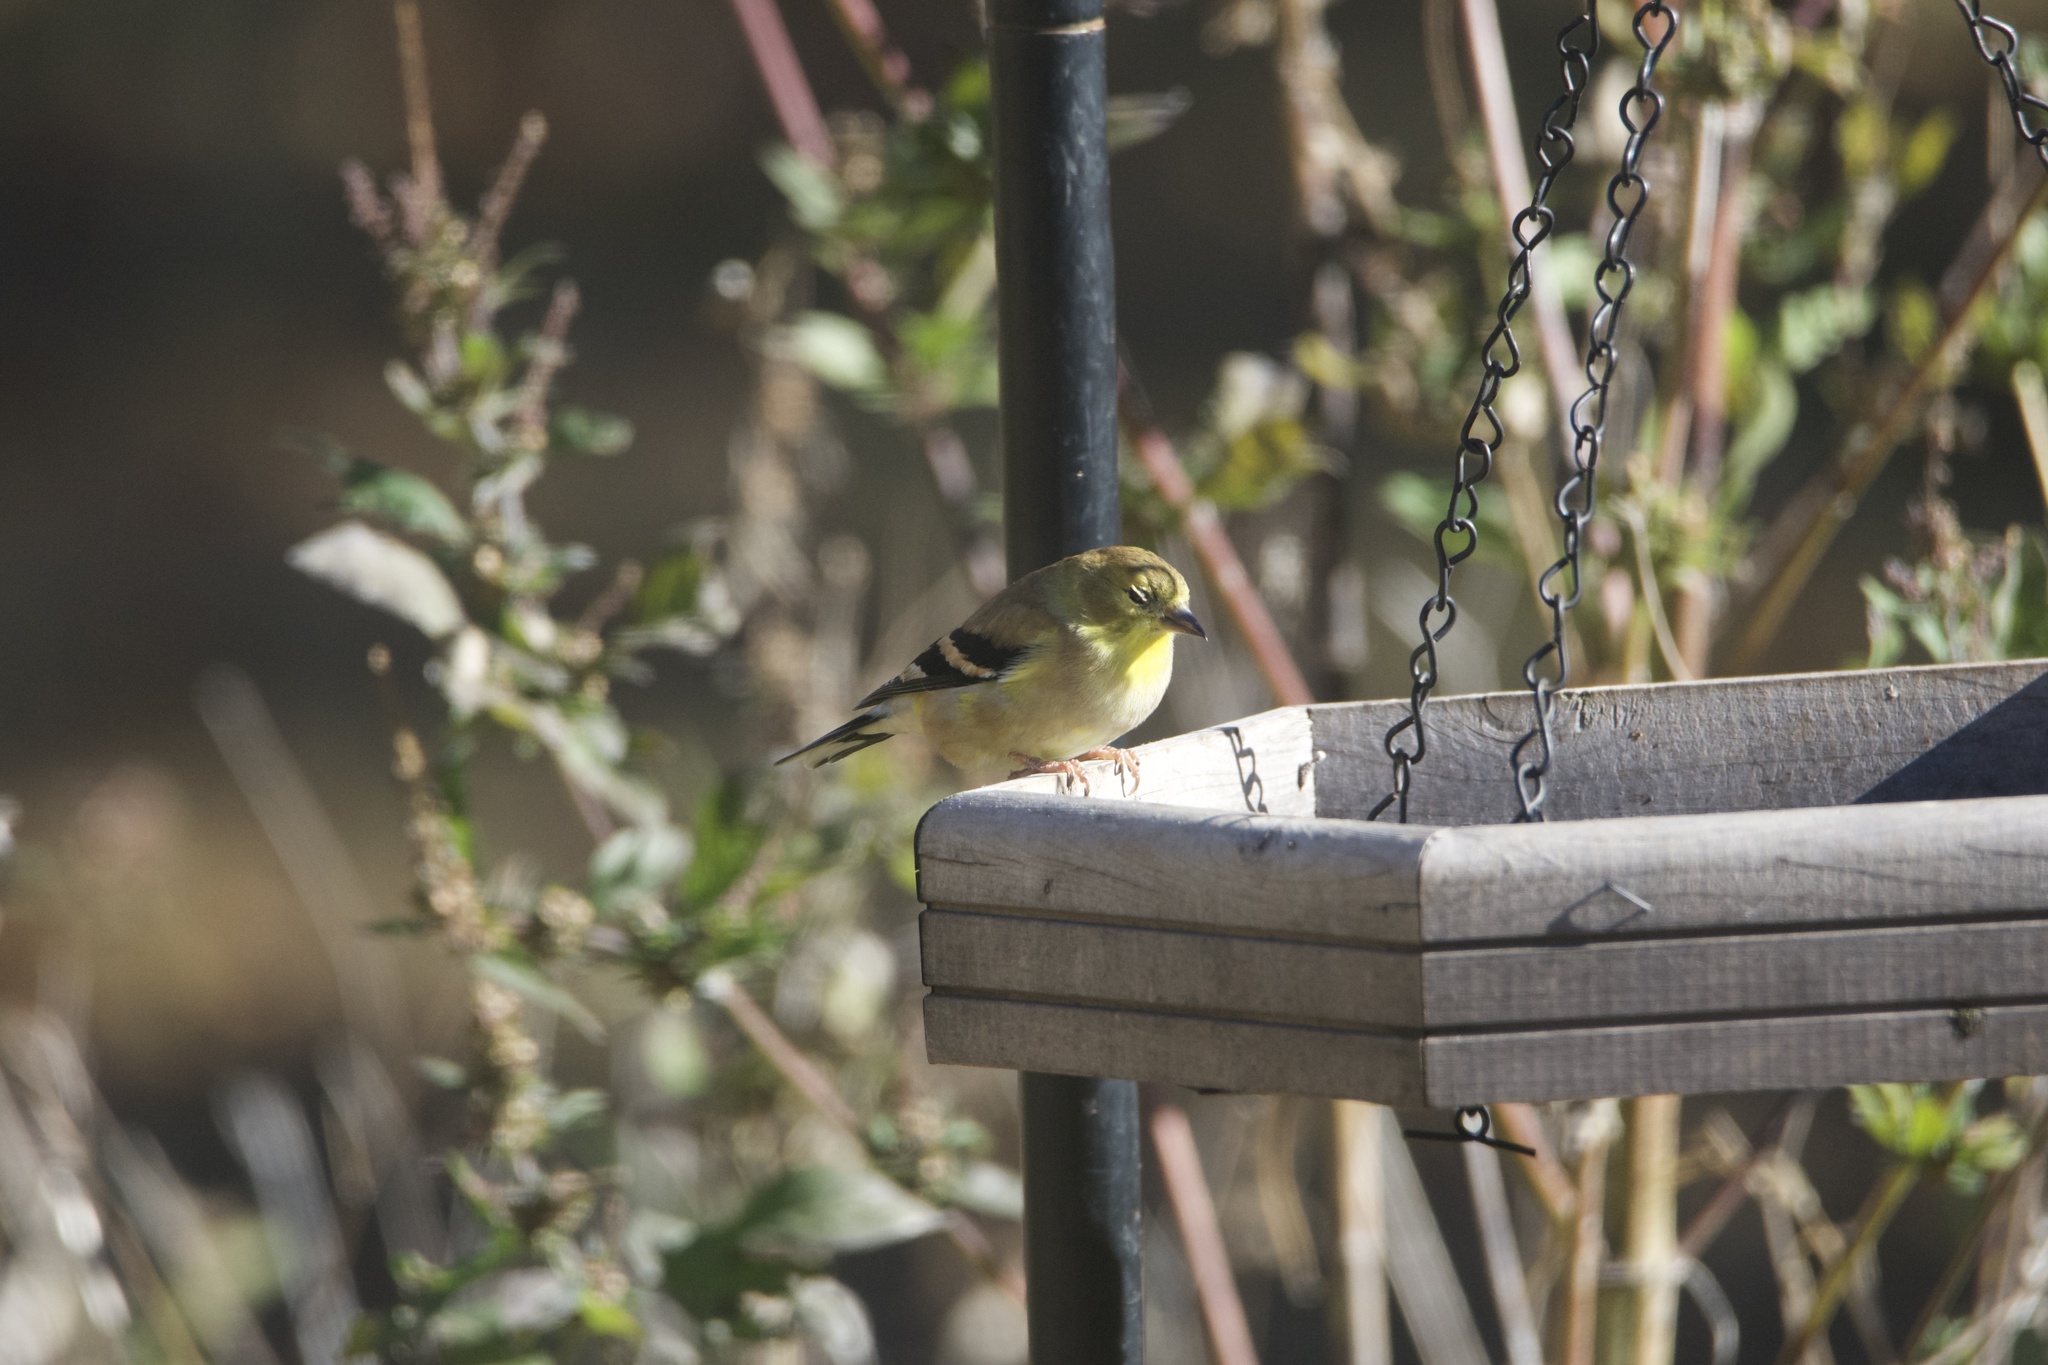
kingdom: Animalia
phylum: Chordata
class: Aves
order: Passeriformes
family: Fringillidae
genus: Spinus
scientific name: Spinus tristis
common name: American goldfinch
